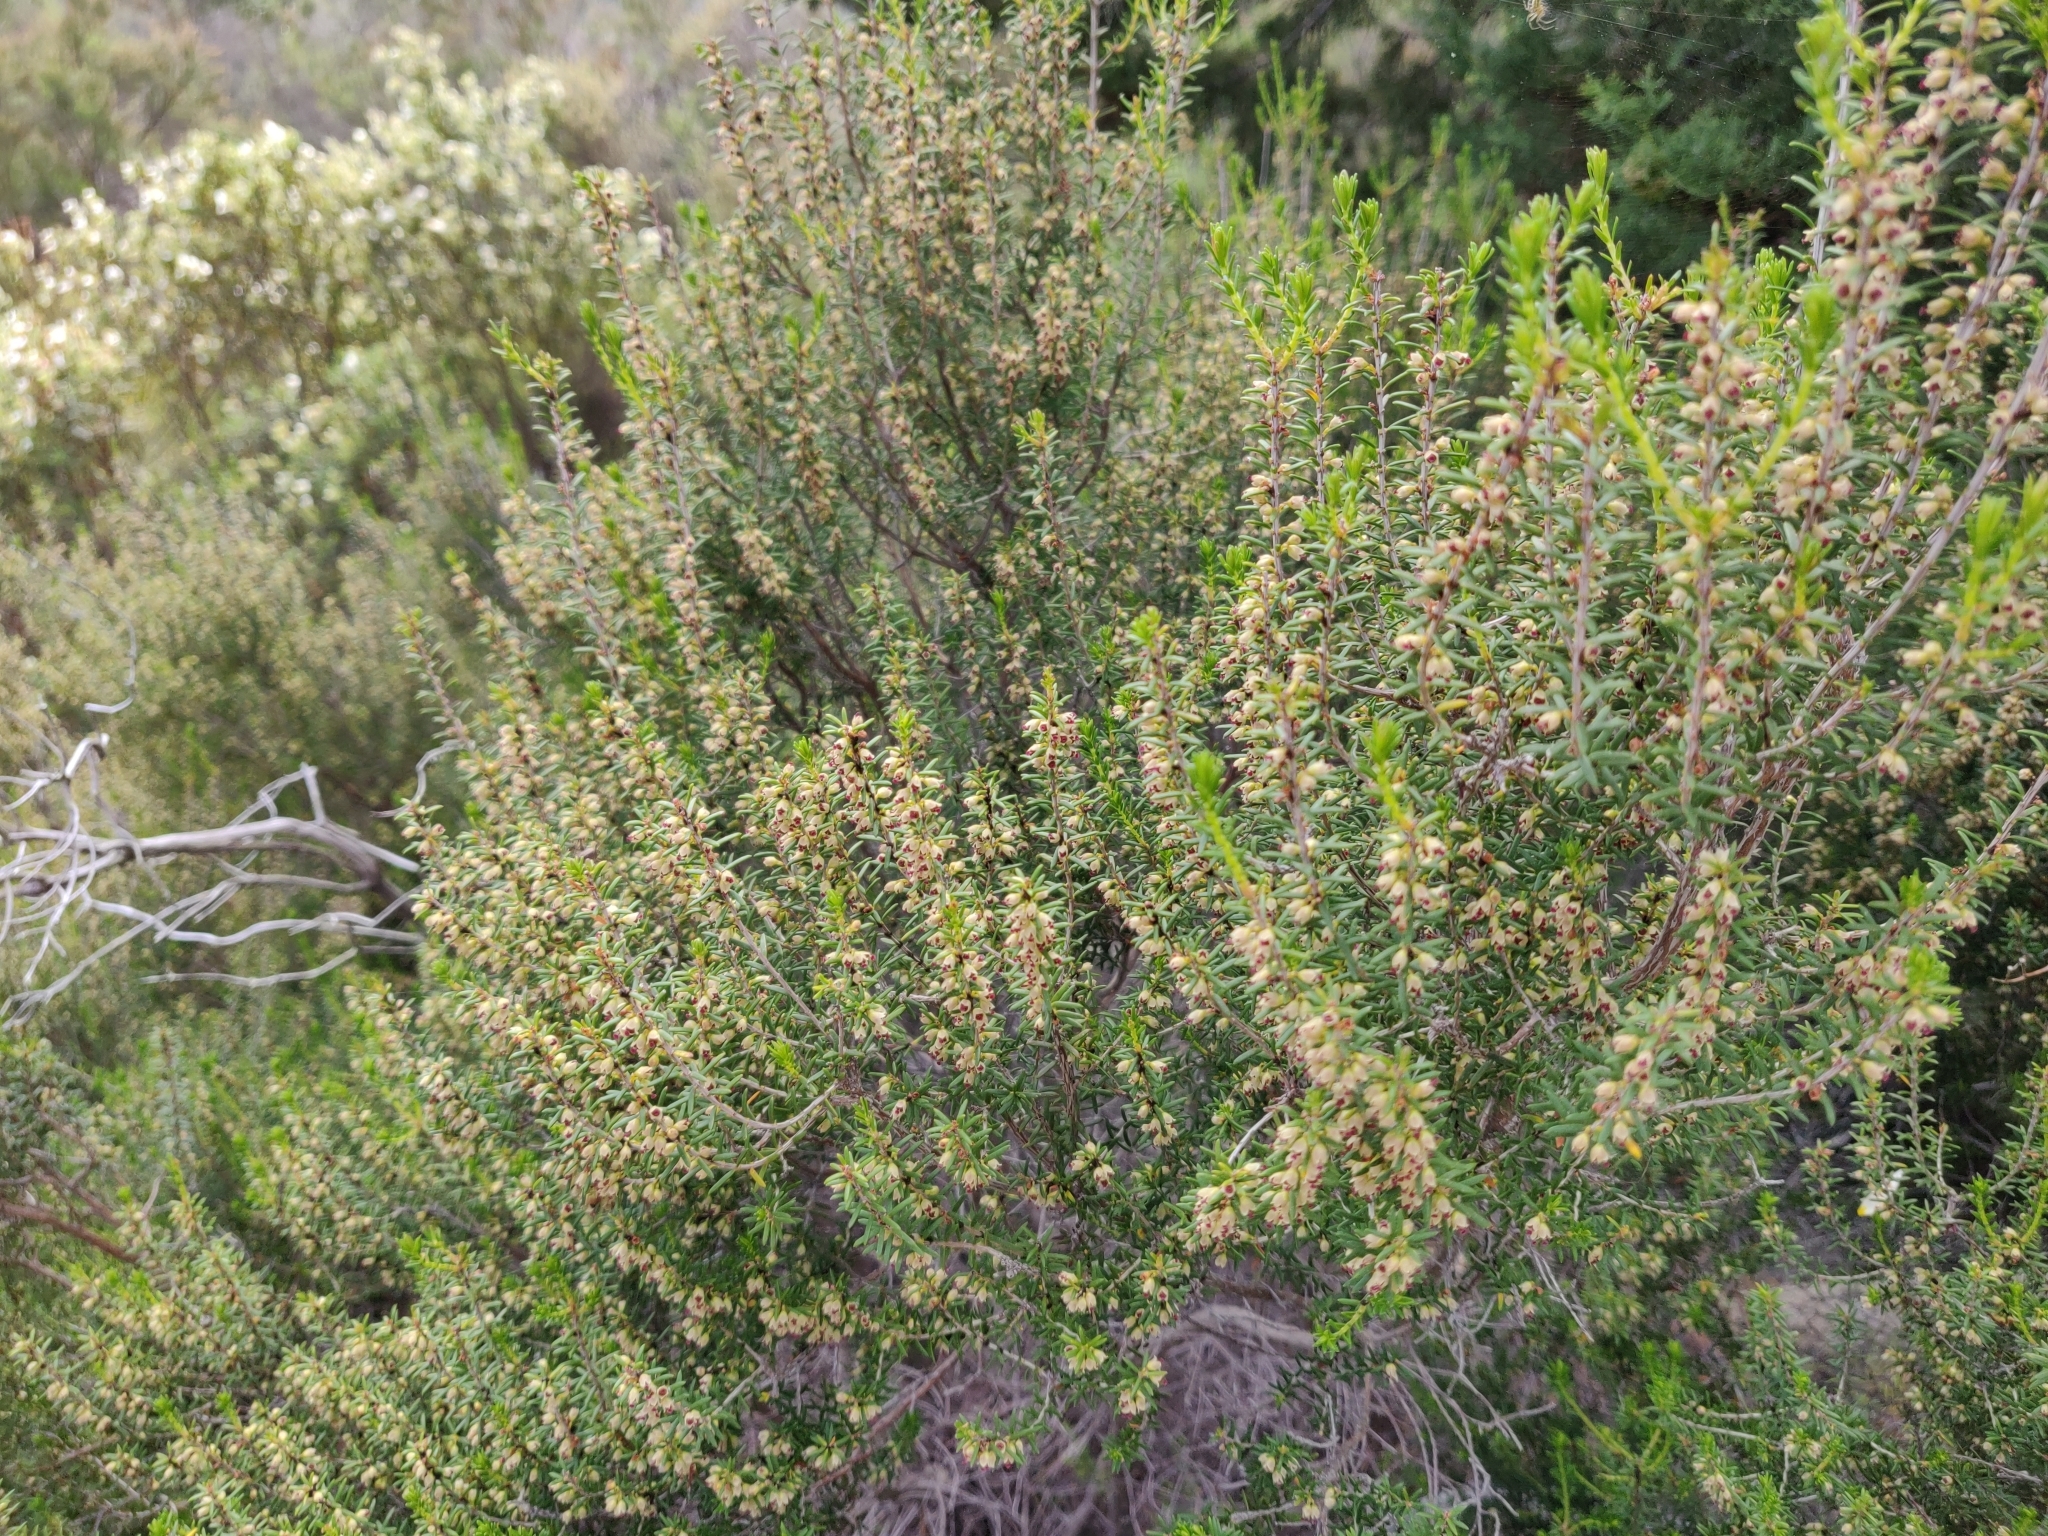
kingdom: Plantae
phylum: Tracheophyta
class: Magnoliopsida
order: Ericales
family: Ericaceae
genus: Erica
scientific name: Erica arborea
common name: Tree heath
